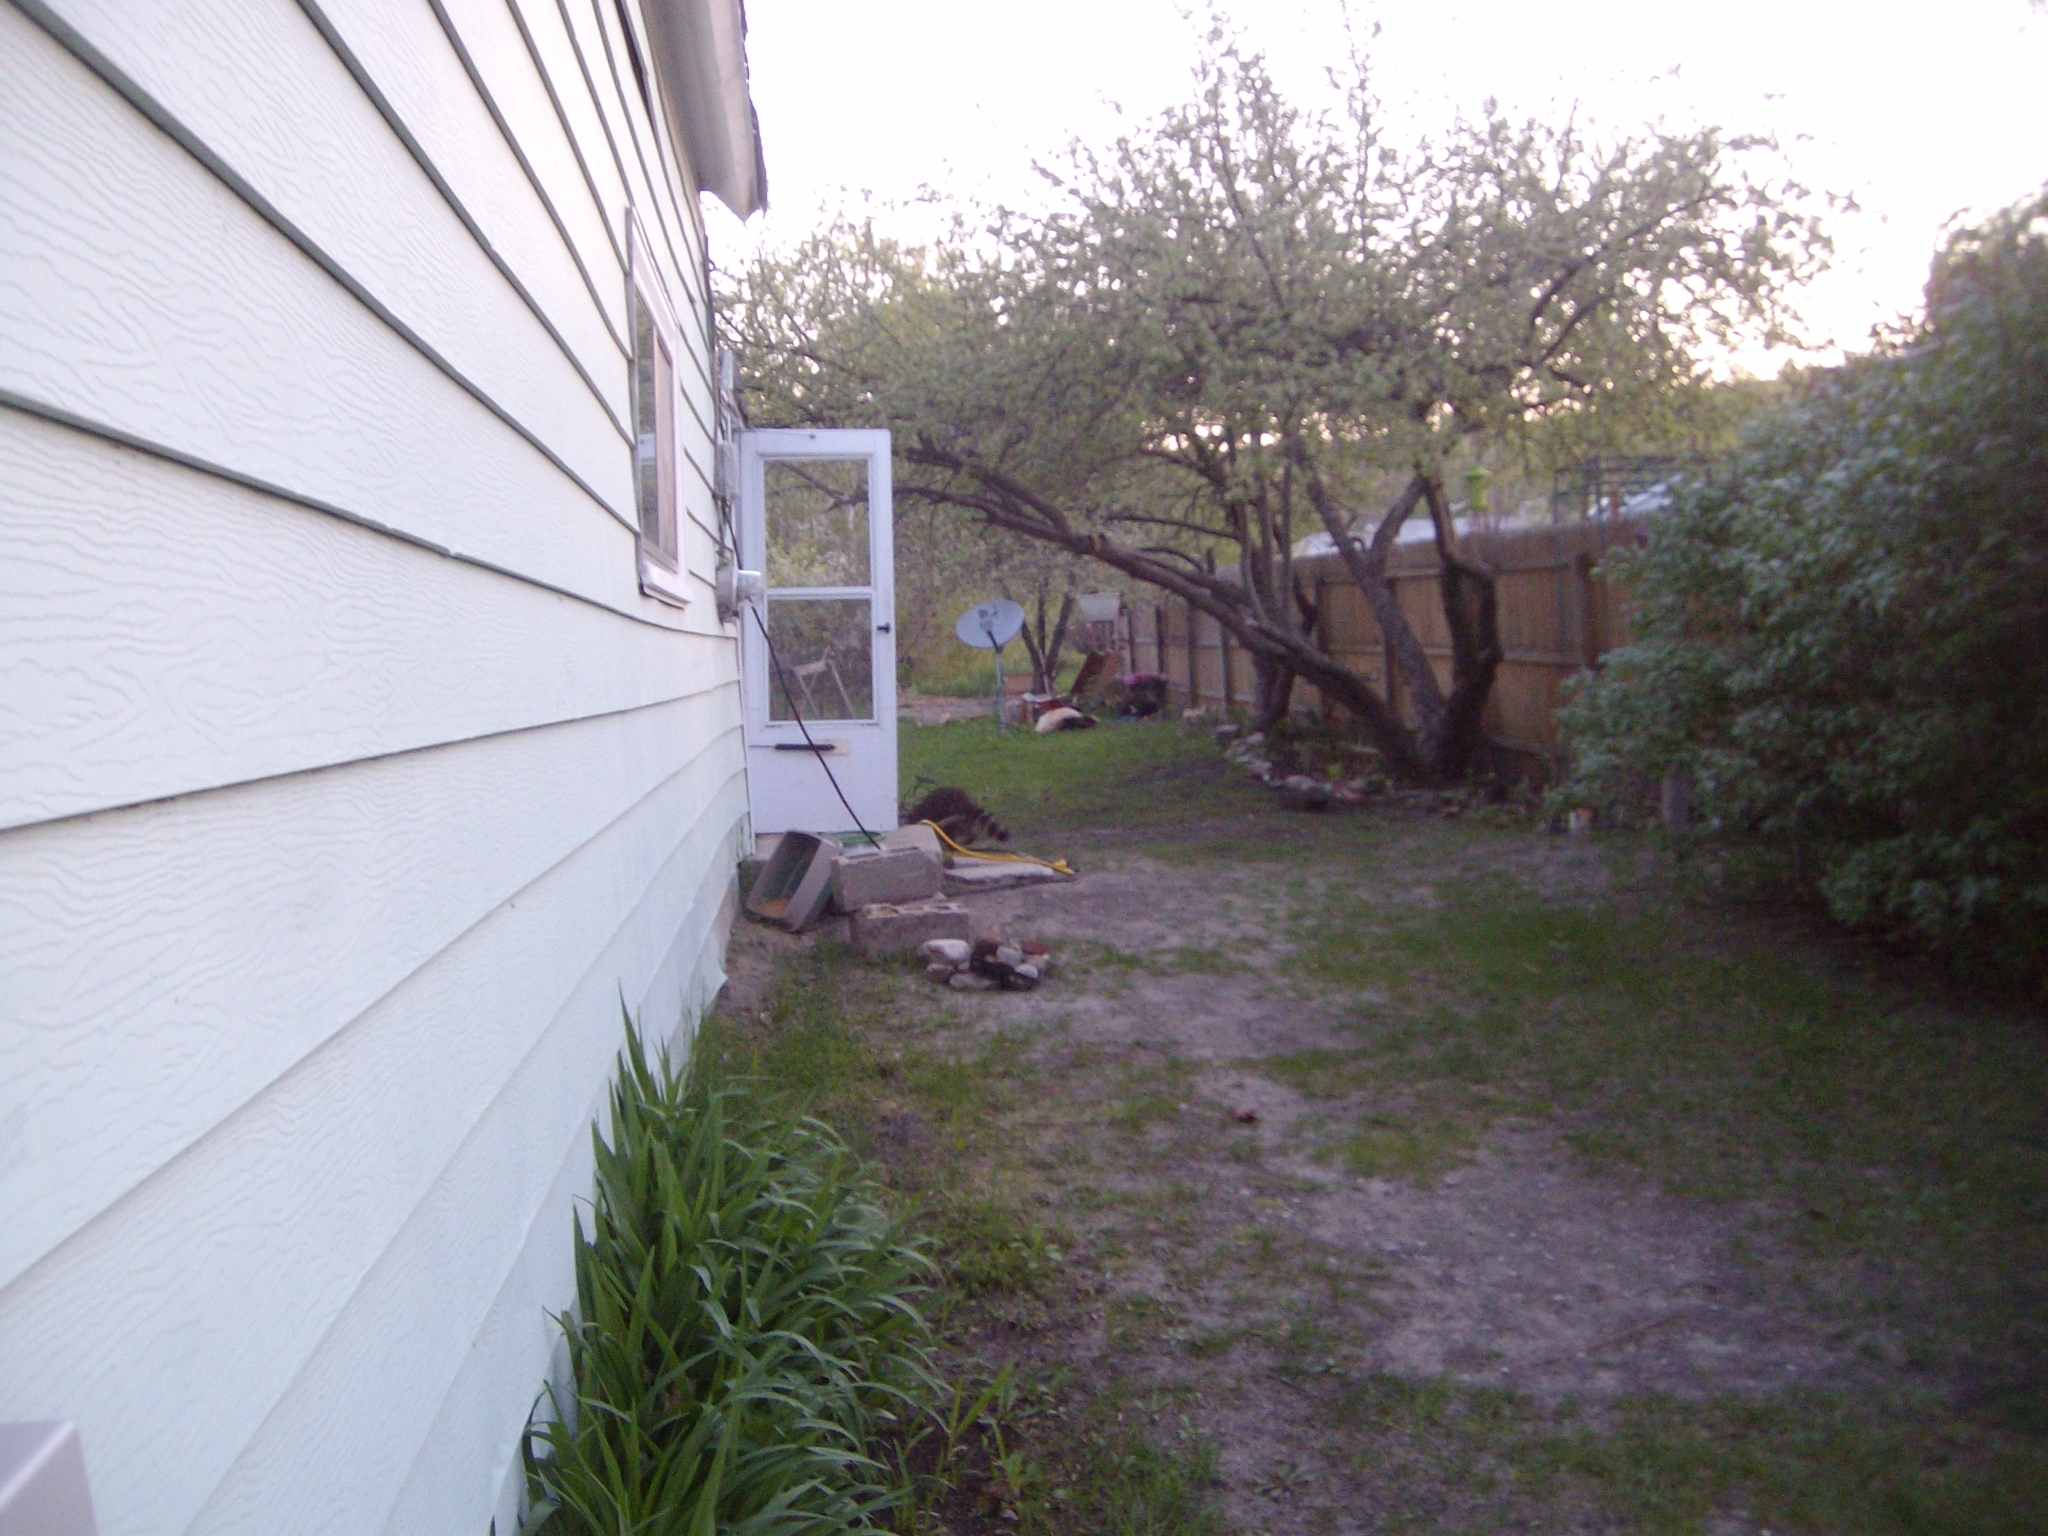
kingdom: Animalia
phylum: Chordata
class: Mammalia
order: Carnivora
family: Procyonidae
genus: Procyon
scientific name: Procyon lotor
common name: Raccoon
